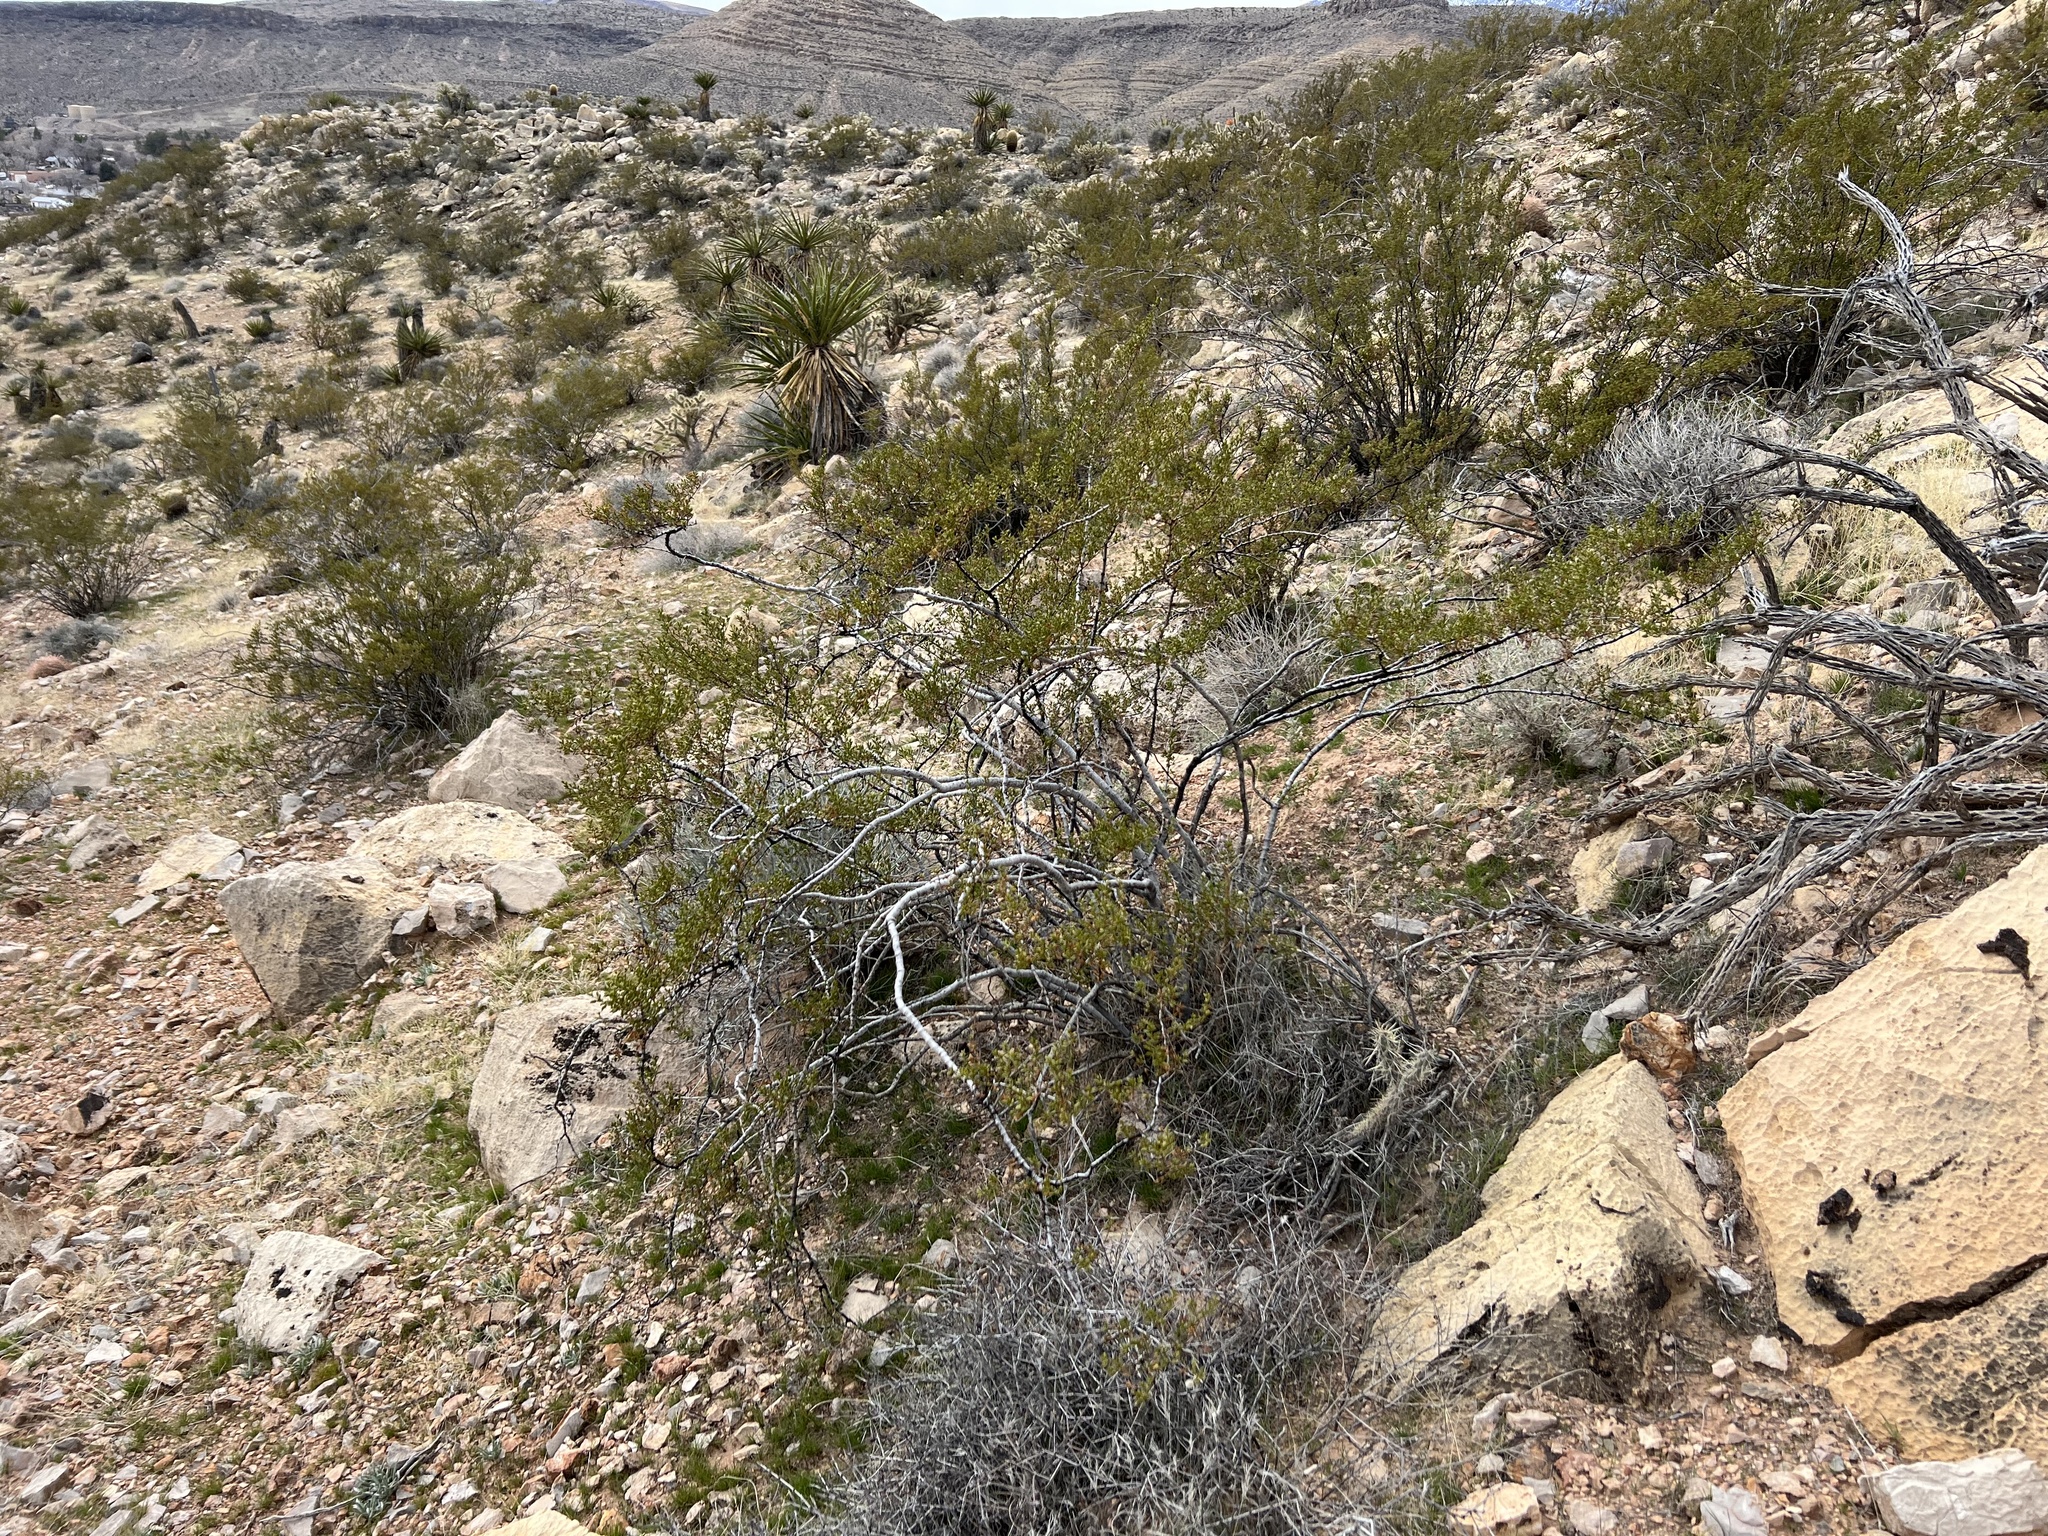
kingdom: Plantae
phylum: Tracheophyta
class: Magnoliopsida
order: Zygophyllales
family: Zygophyllaceae
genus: Larrea
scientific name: Larrea tridentata
